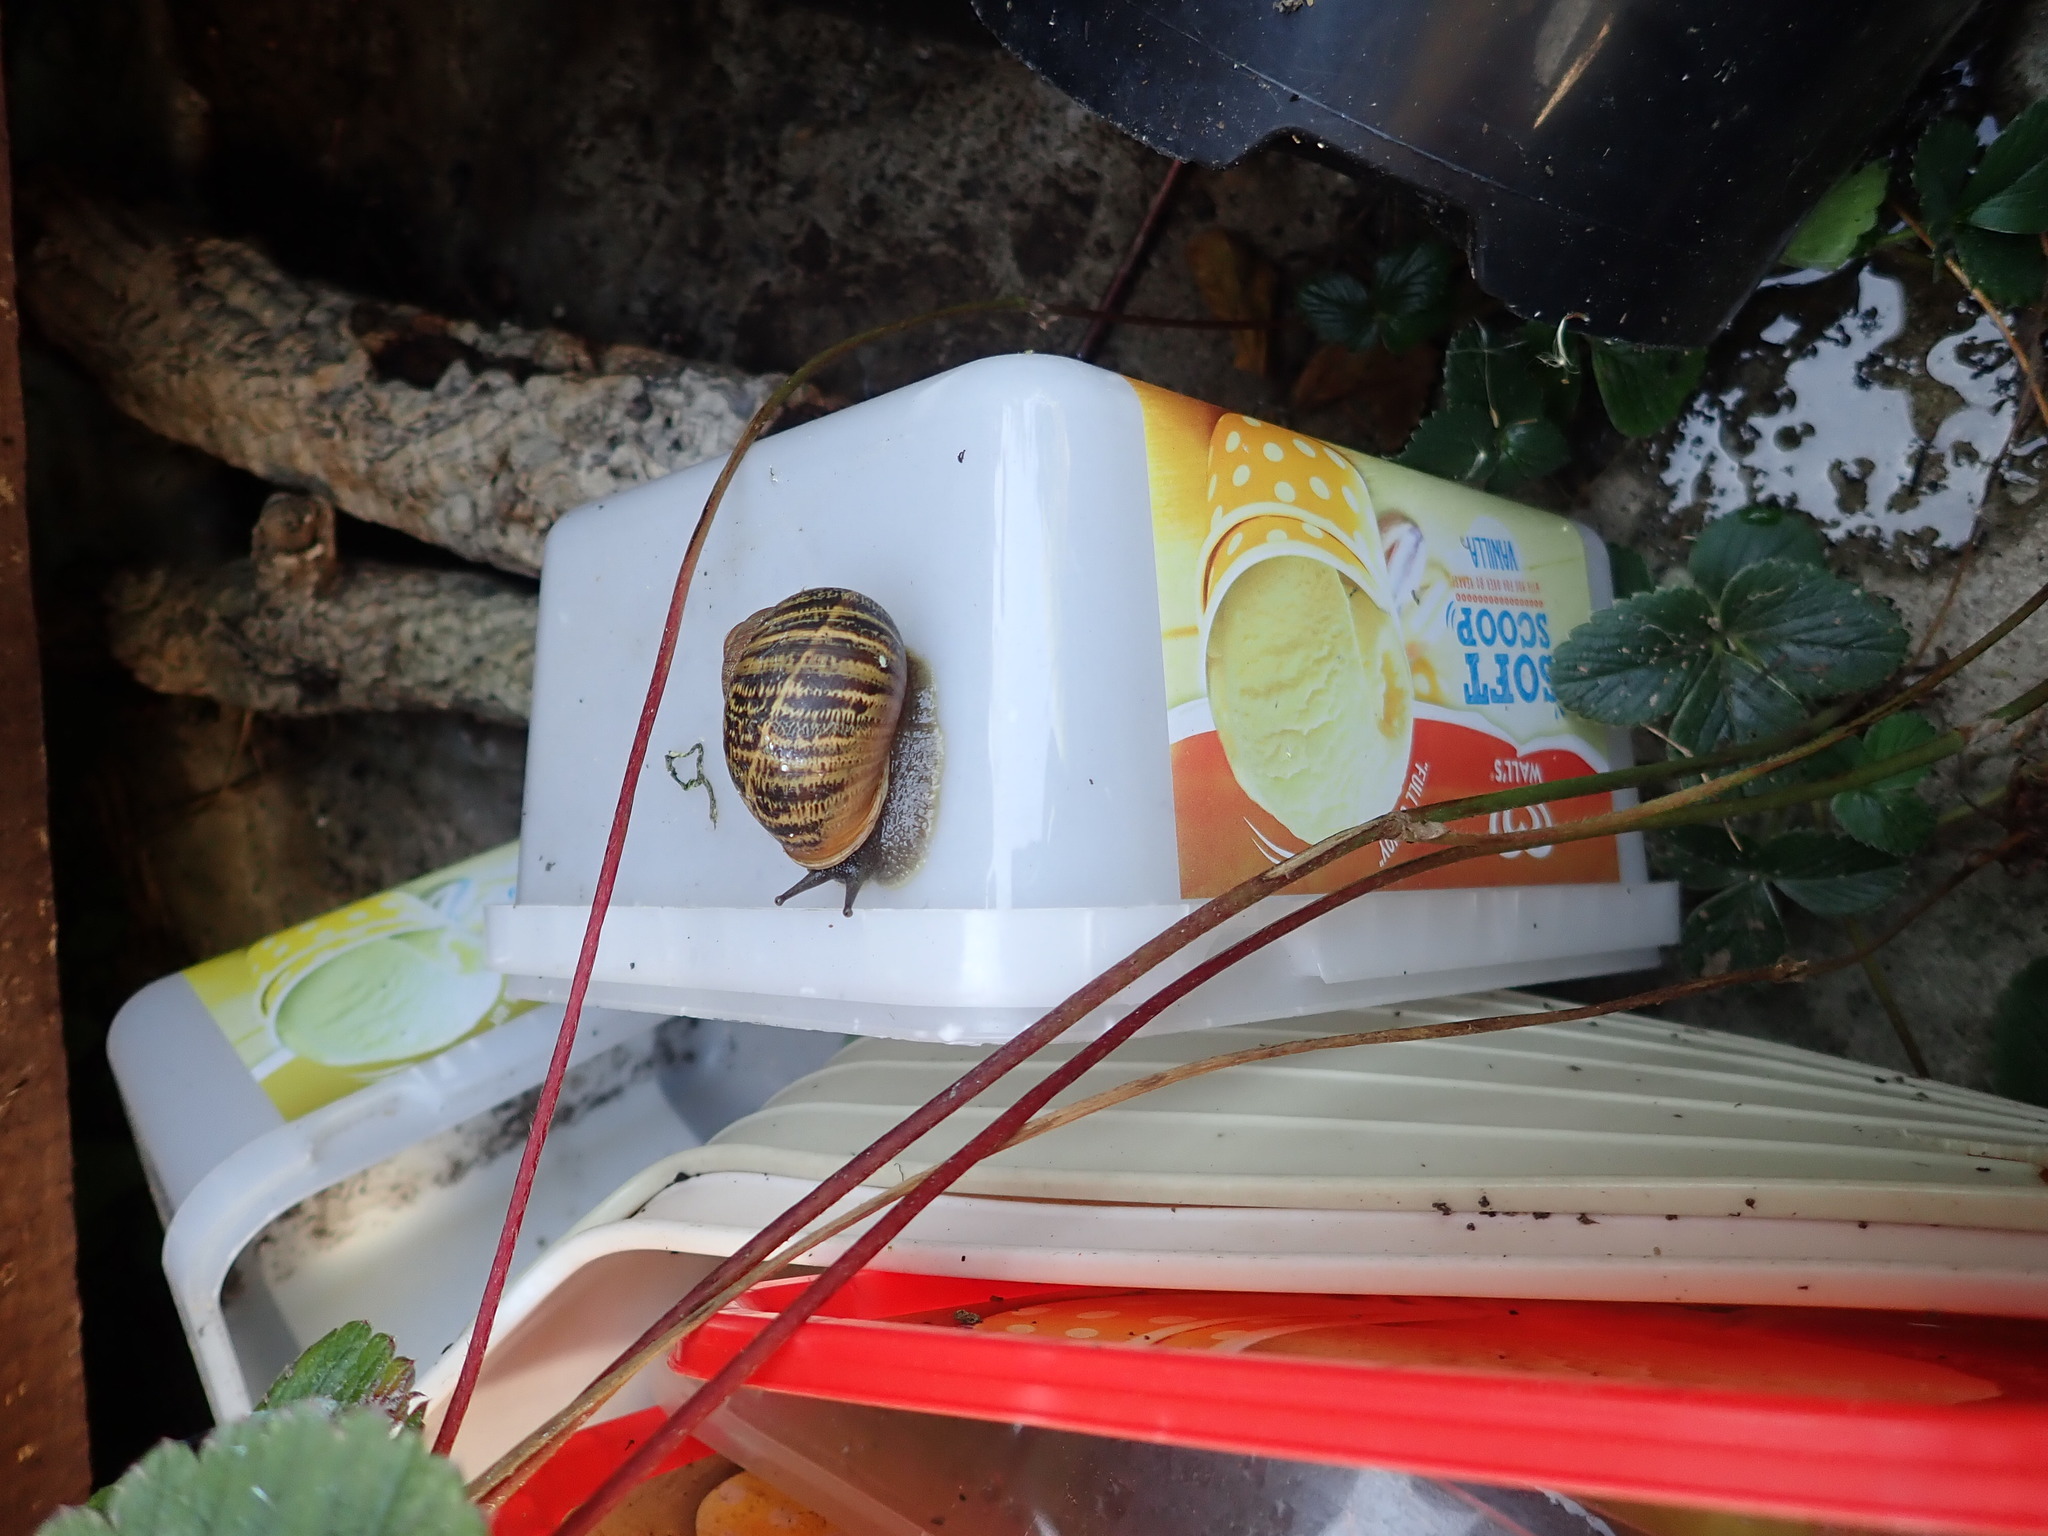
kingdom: Animalia
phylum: Mollusca
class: Gastropoda
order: Stylommatophora
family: Helicidae
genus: Cornu
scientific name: Cornu aspersum
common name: Brown garden snail
